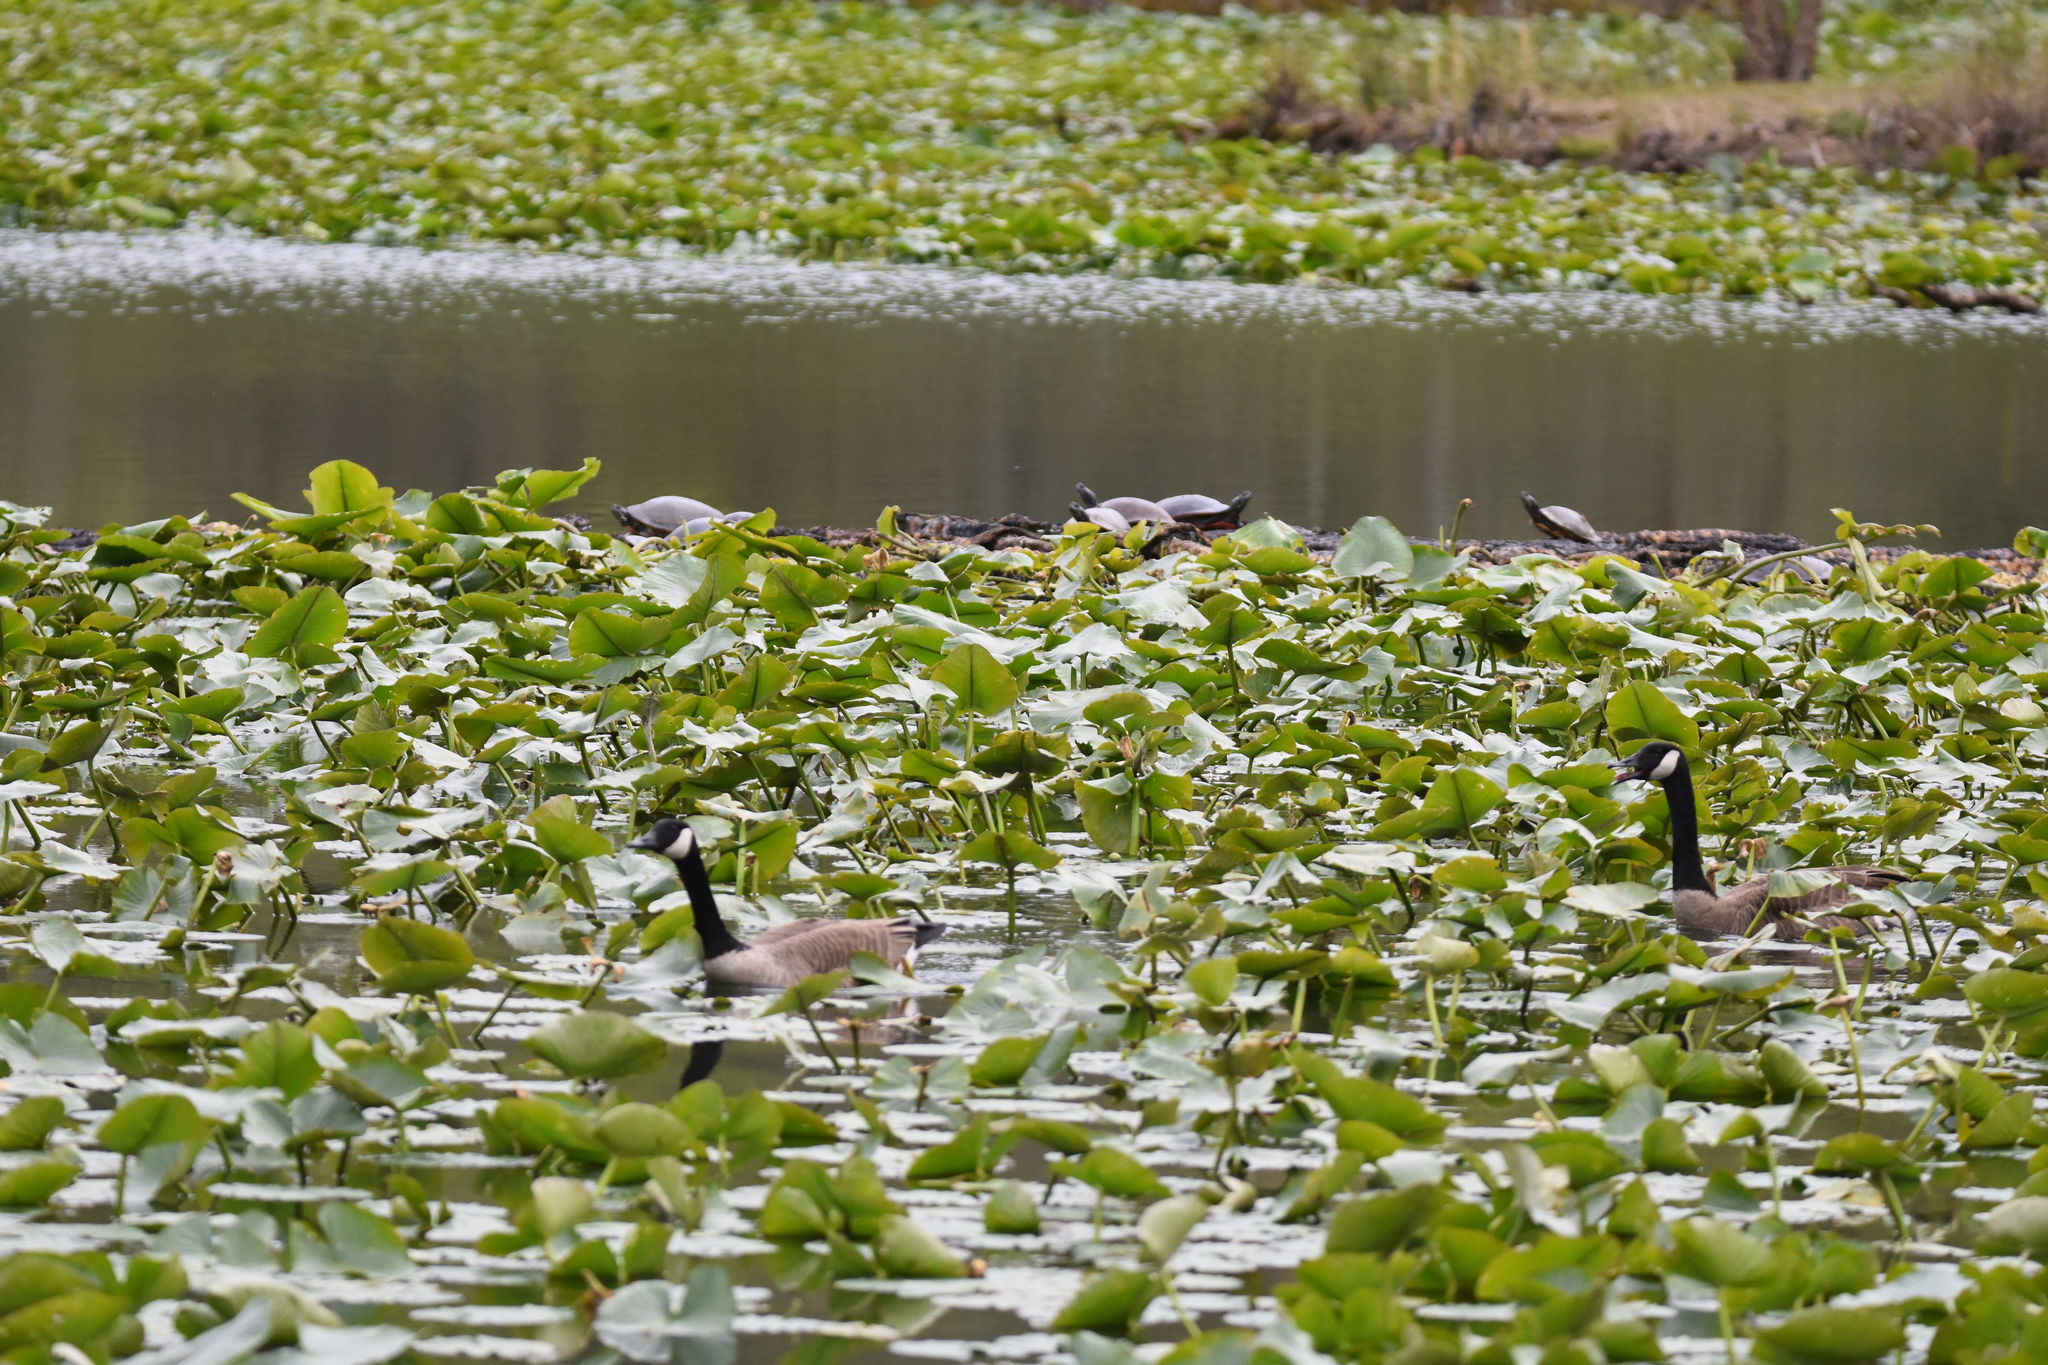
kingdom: Animalia
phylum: Chordata
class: Aves
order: Anseriformes
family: Anatidae
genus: Branta
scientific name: Branta canadensis
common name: Canada goose
